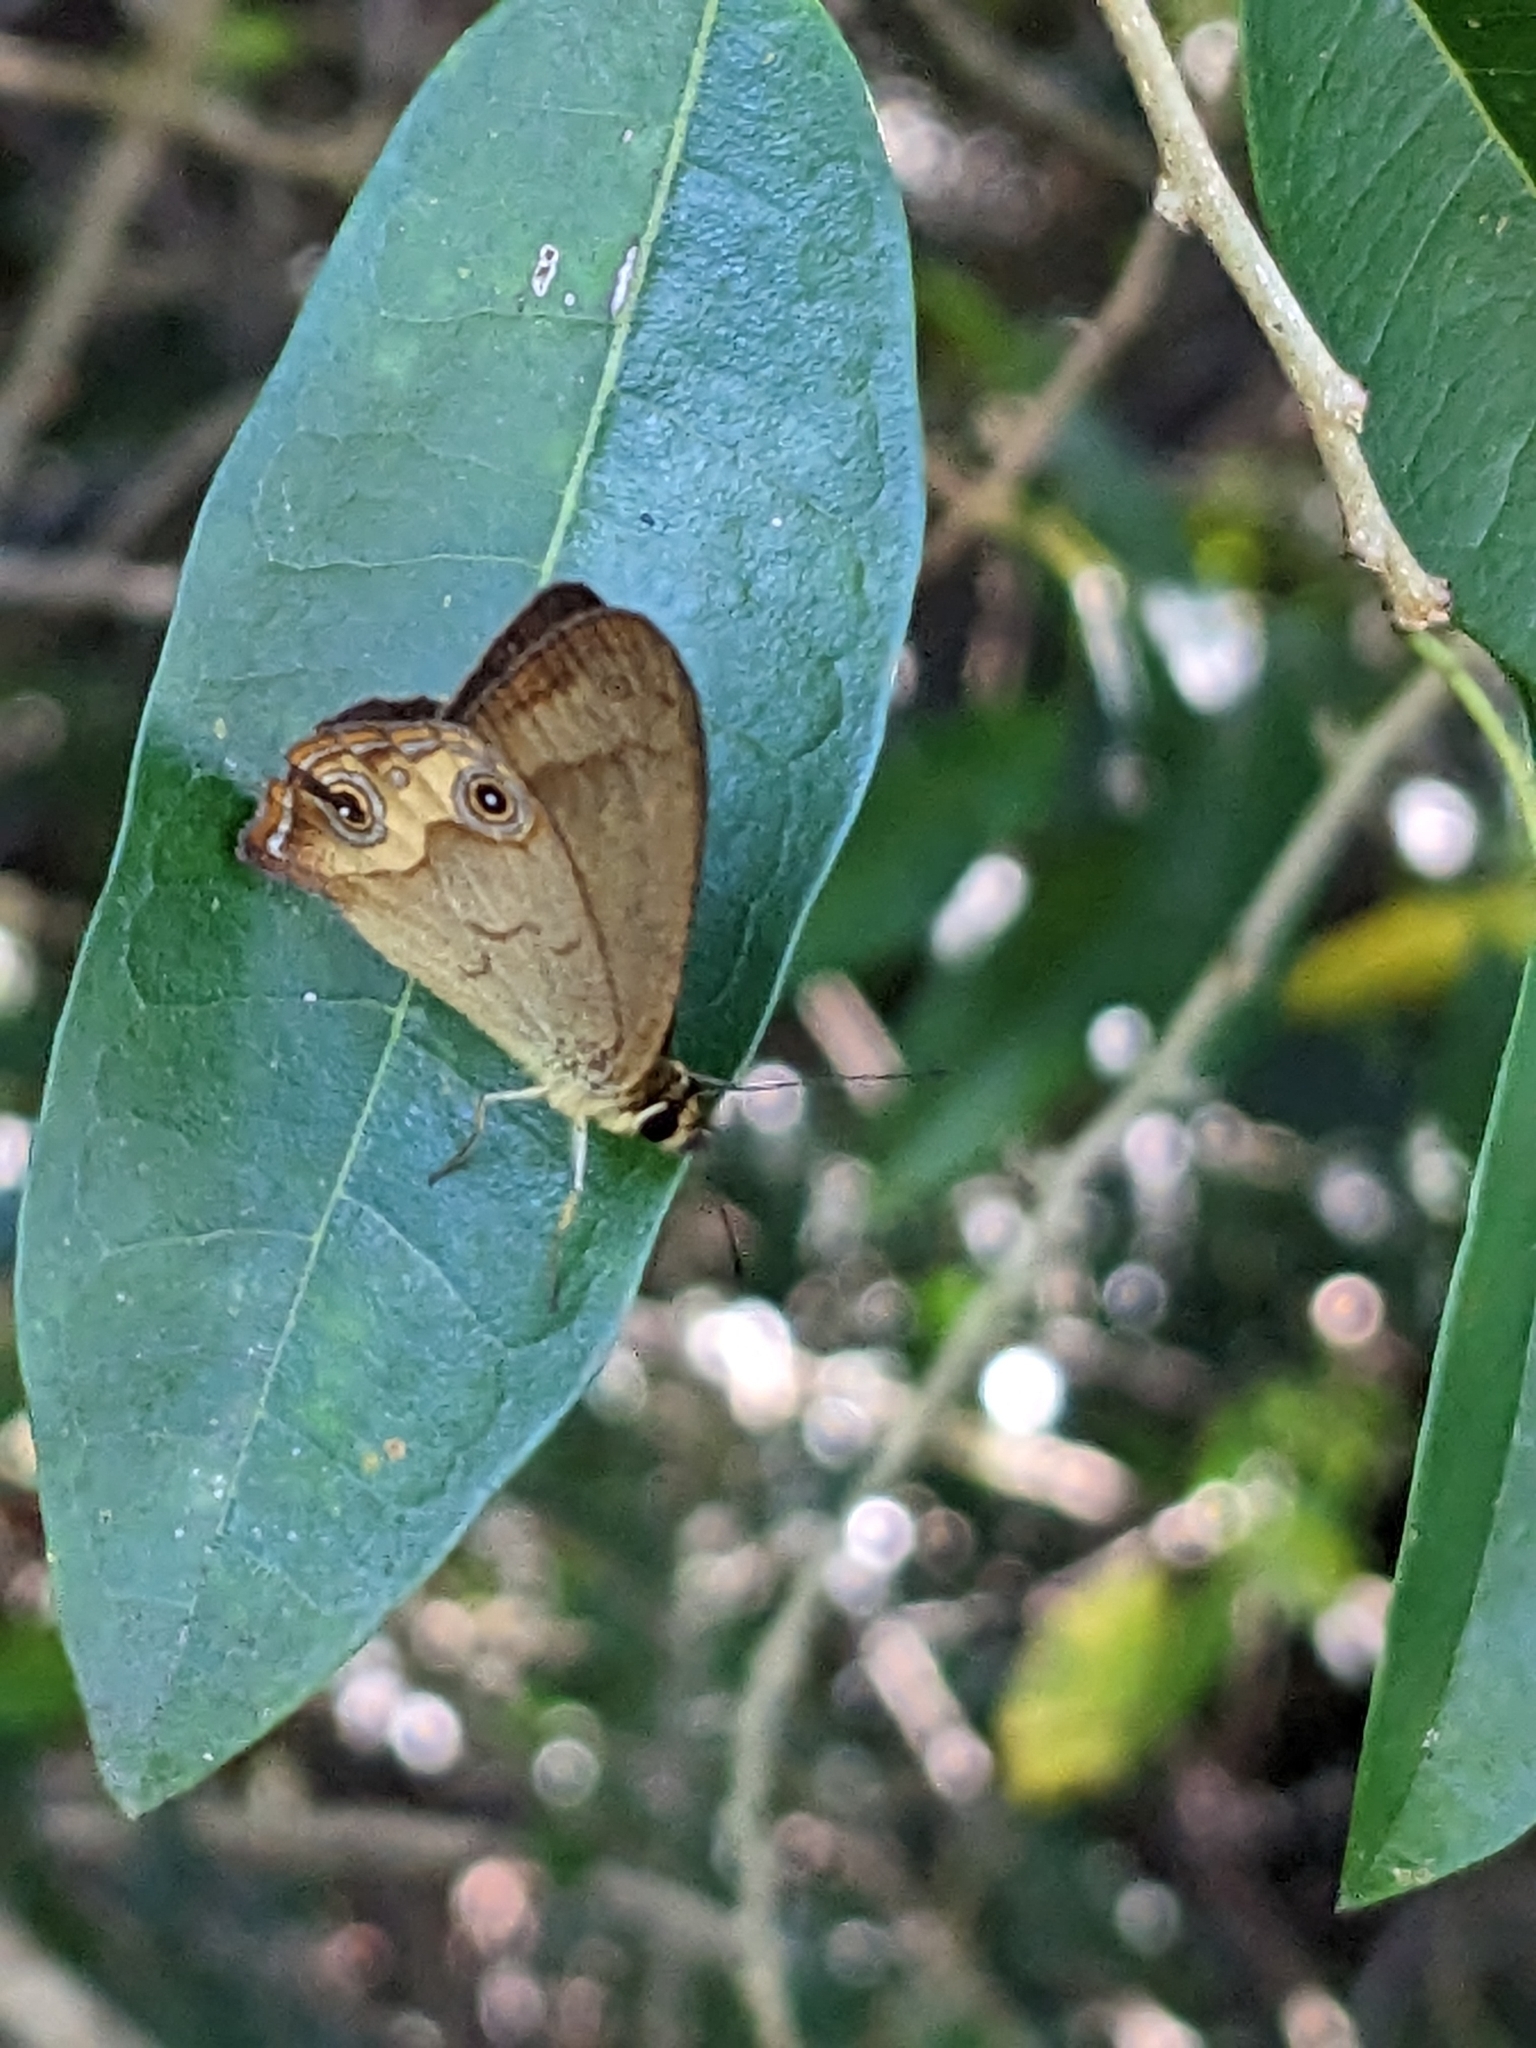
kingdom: Animalia
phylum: Arthropoda
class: Insecta
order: Lepidoptera
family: Nymphalidae
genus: Hypocysta
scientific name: Hypocysta metirius
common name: Brown ringlet
